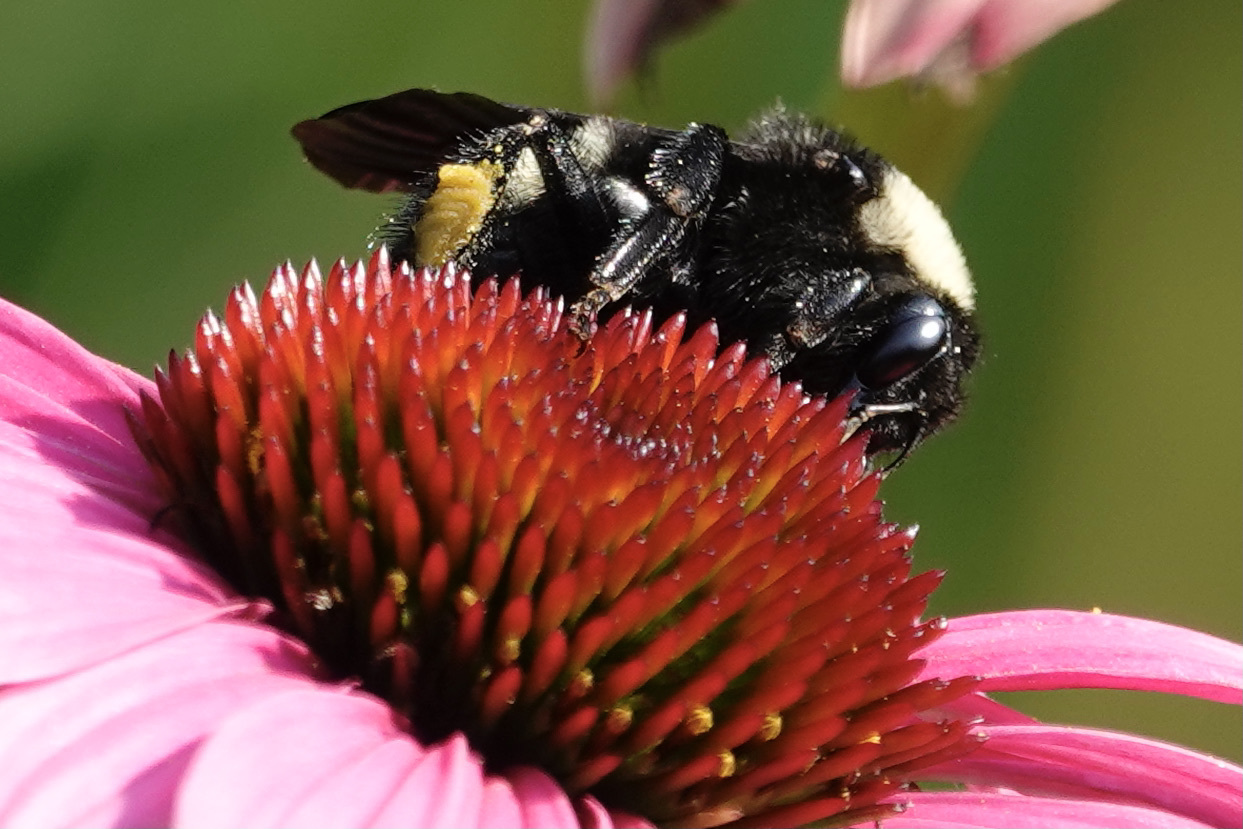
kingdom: Animalia
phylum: Arthropoda
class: Insecta
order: Hymenoptera
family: Apidae
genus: Bombus
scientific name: Bombus pensylvanicus
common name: Bumble bee
